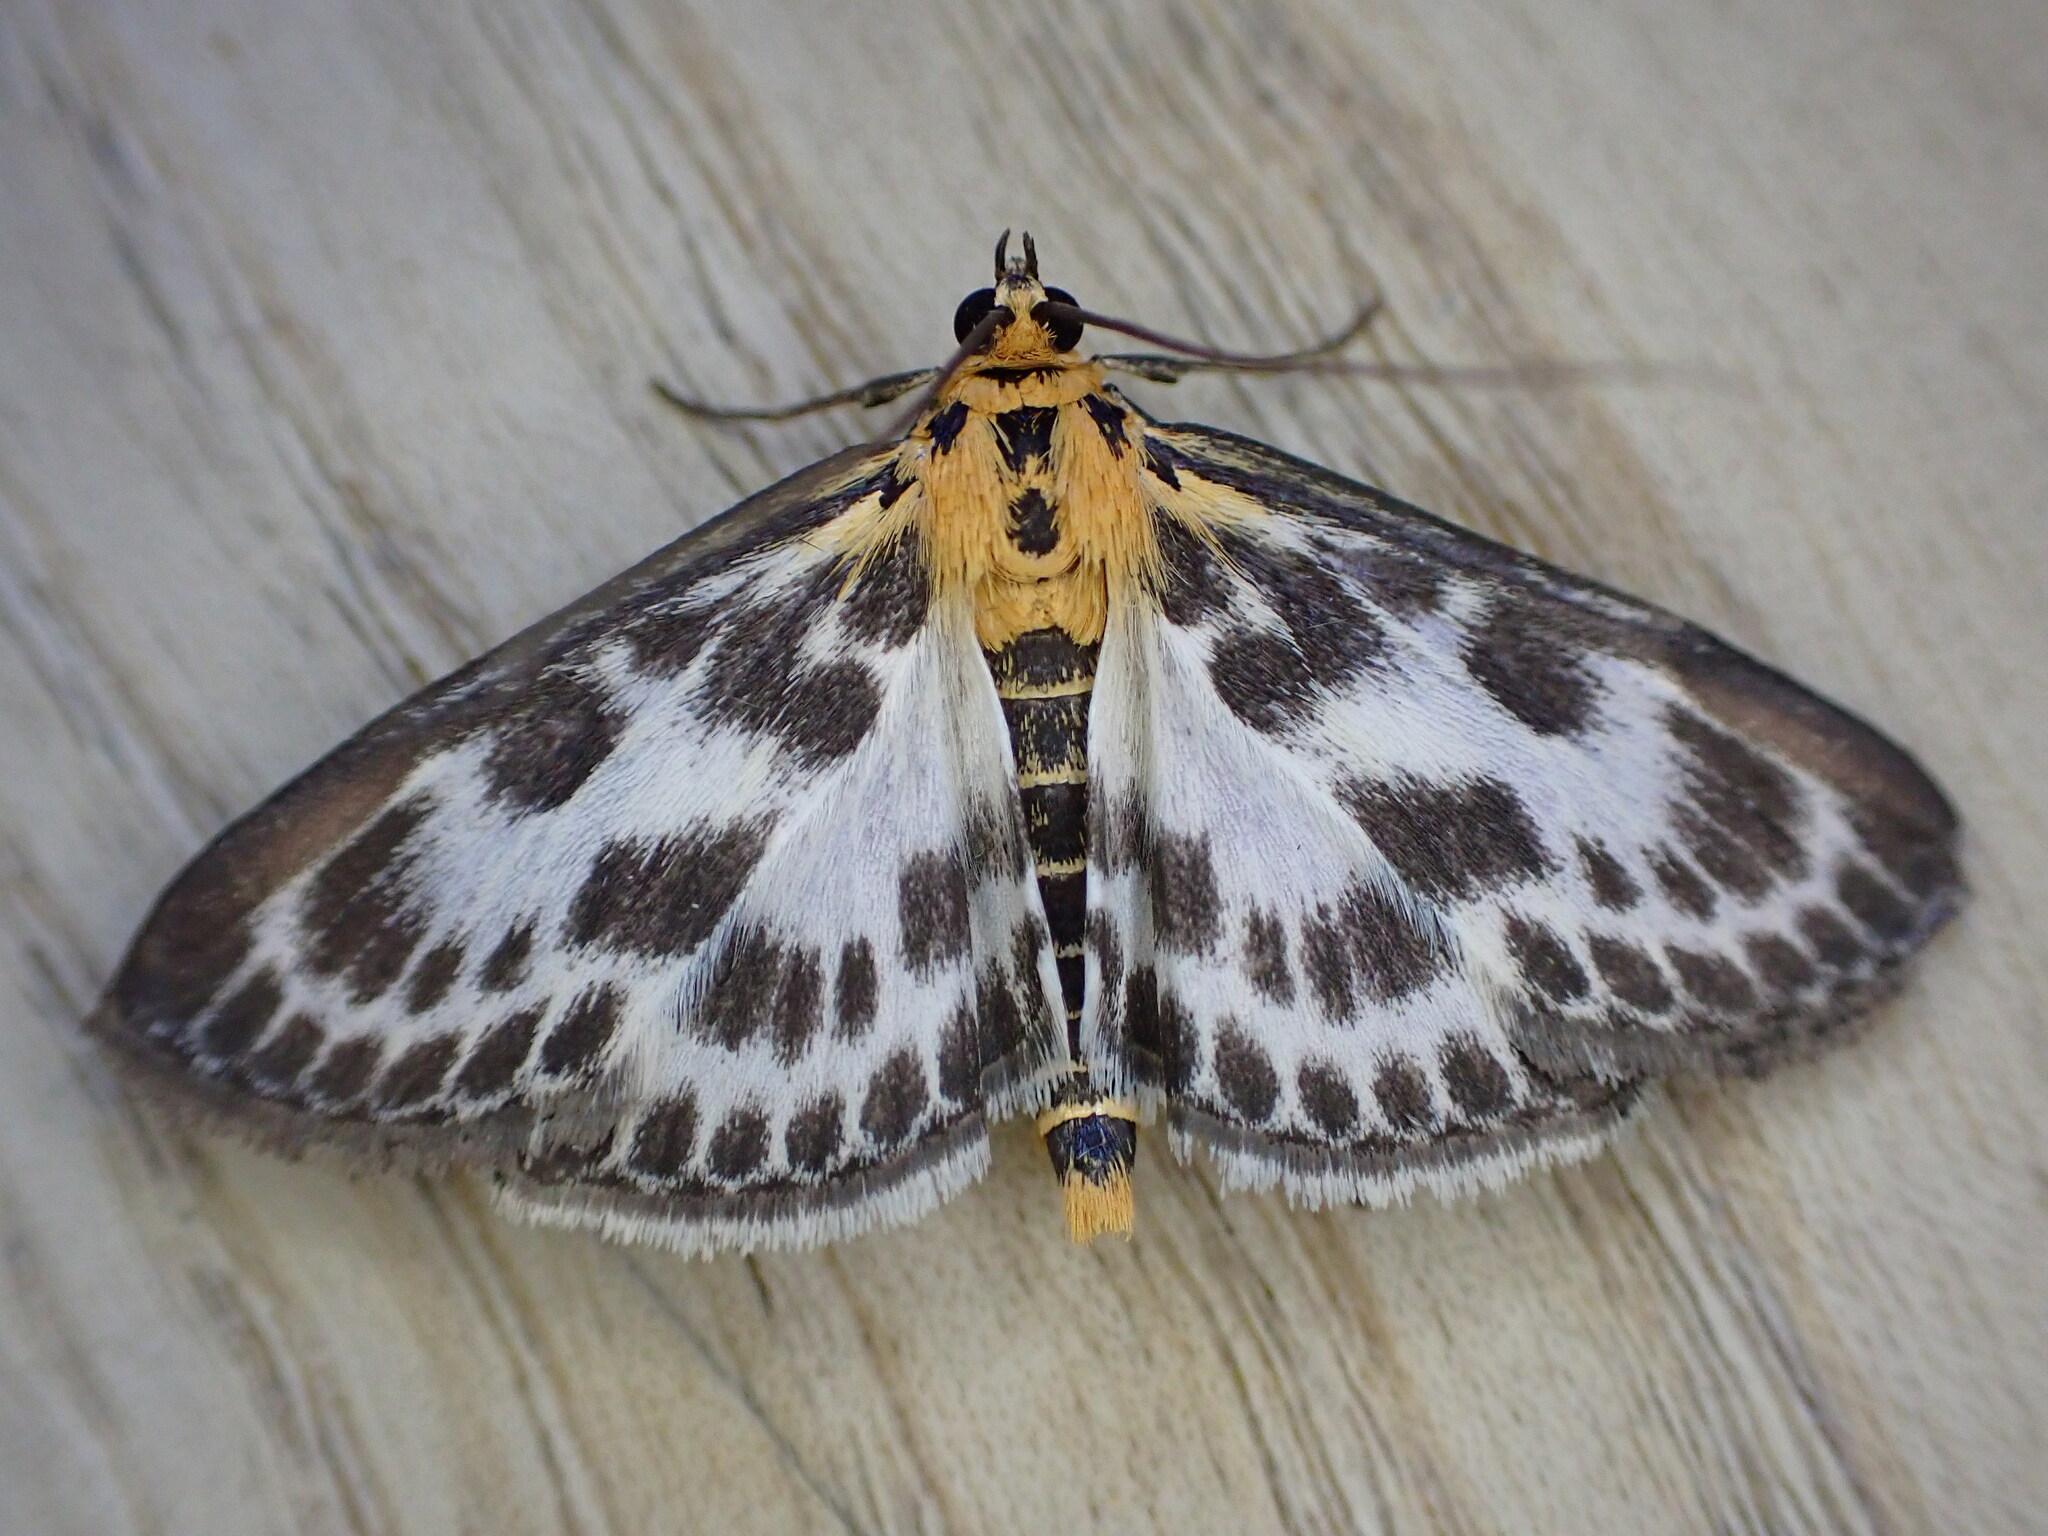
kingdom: Animalia
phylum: Arthropoda
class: Insecta
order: Lepidoptera
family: Crambidae
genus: Anania
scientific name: Anania hortulata
